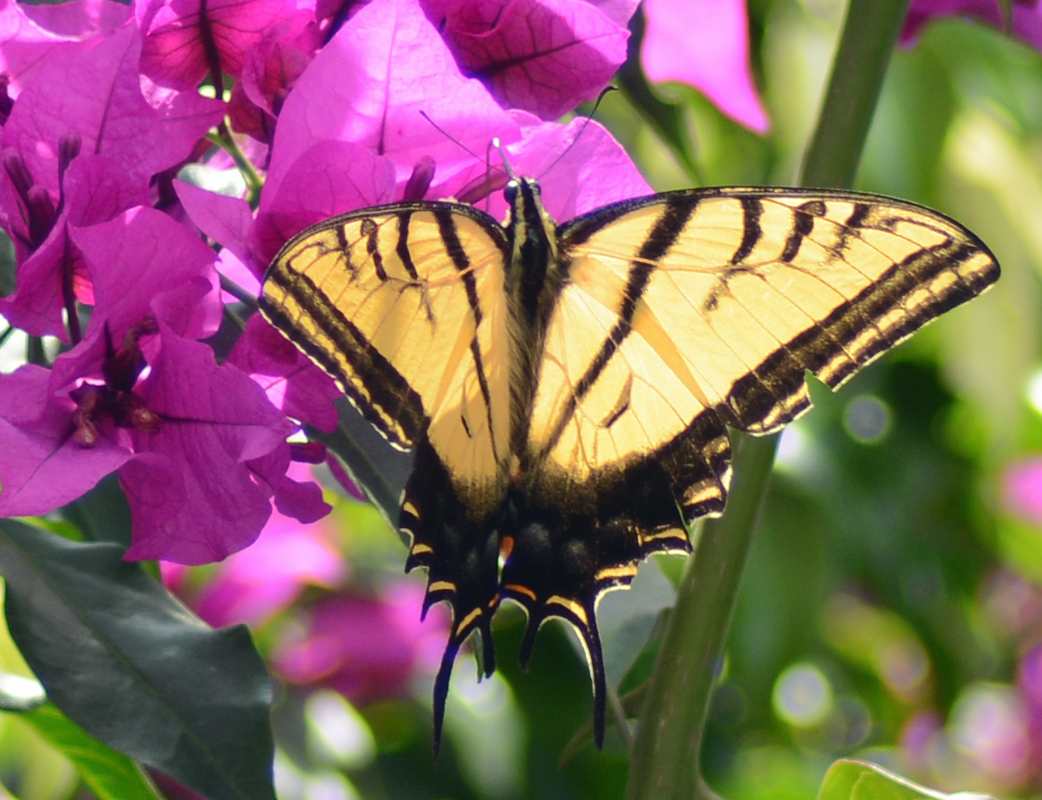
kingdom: Animalia
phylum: Arthropoda
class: Insecta
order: Lepidoptera
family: Papilionidae
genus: Papilio
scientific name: Papilio multicaudata
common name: Two-tailed tiger swallowtail
